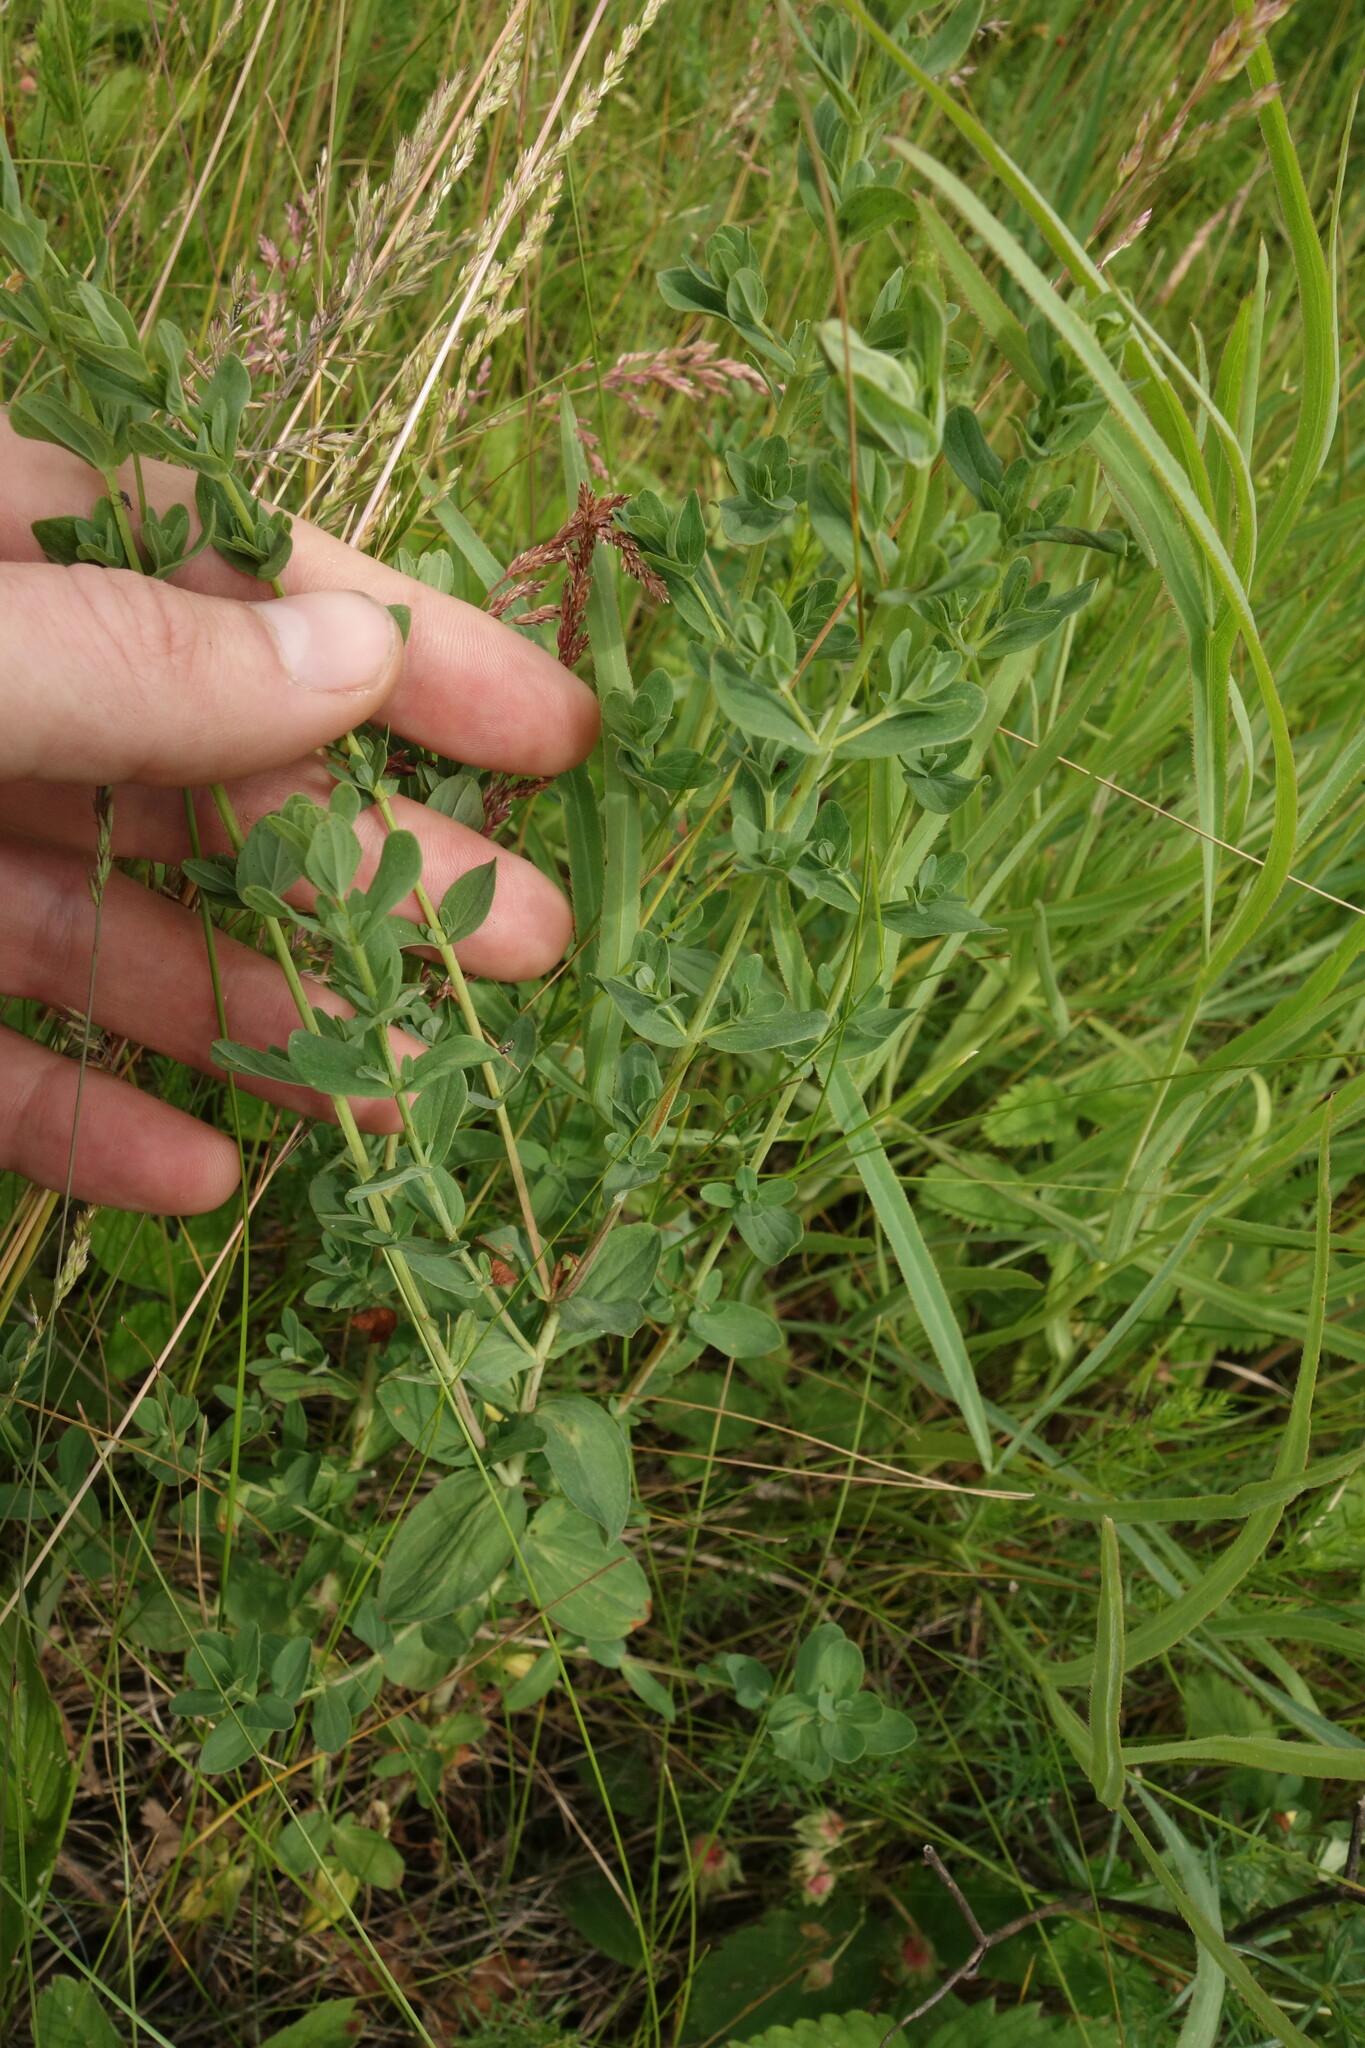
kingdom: Plantae
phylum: Tracheophyta
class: Magnoliopsida
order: Malpighiales
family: Hypericaceae
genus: Hypericum
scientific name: Hypericum perforatum
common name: Common st. johnswort
